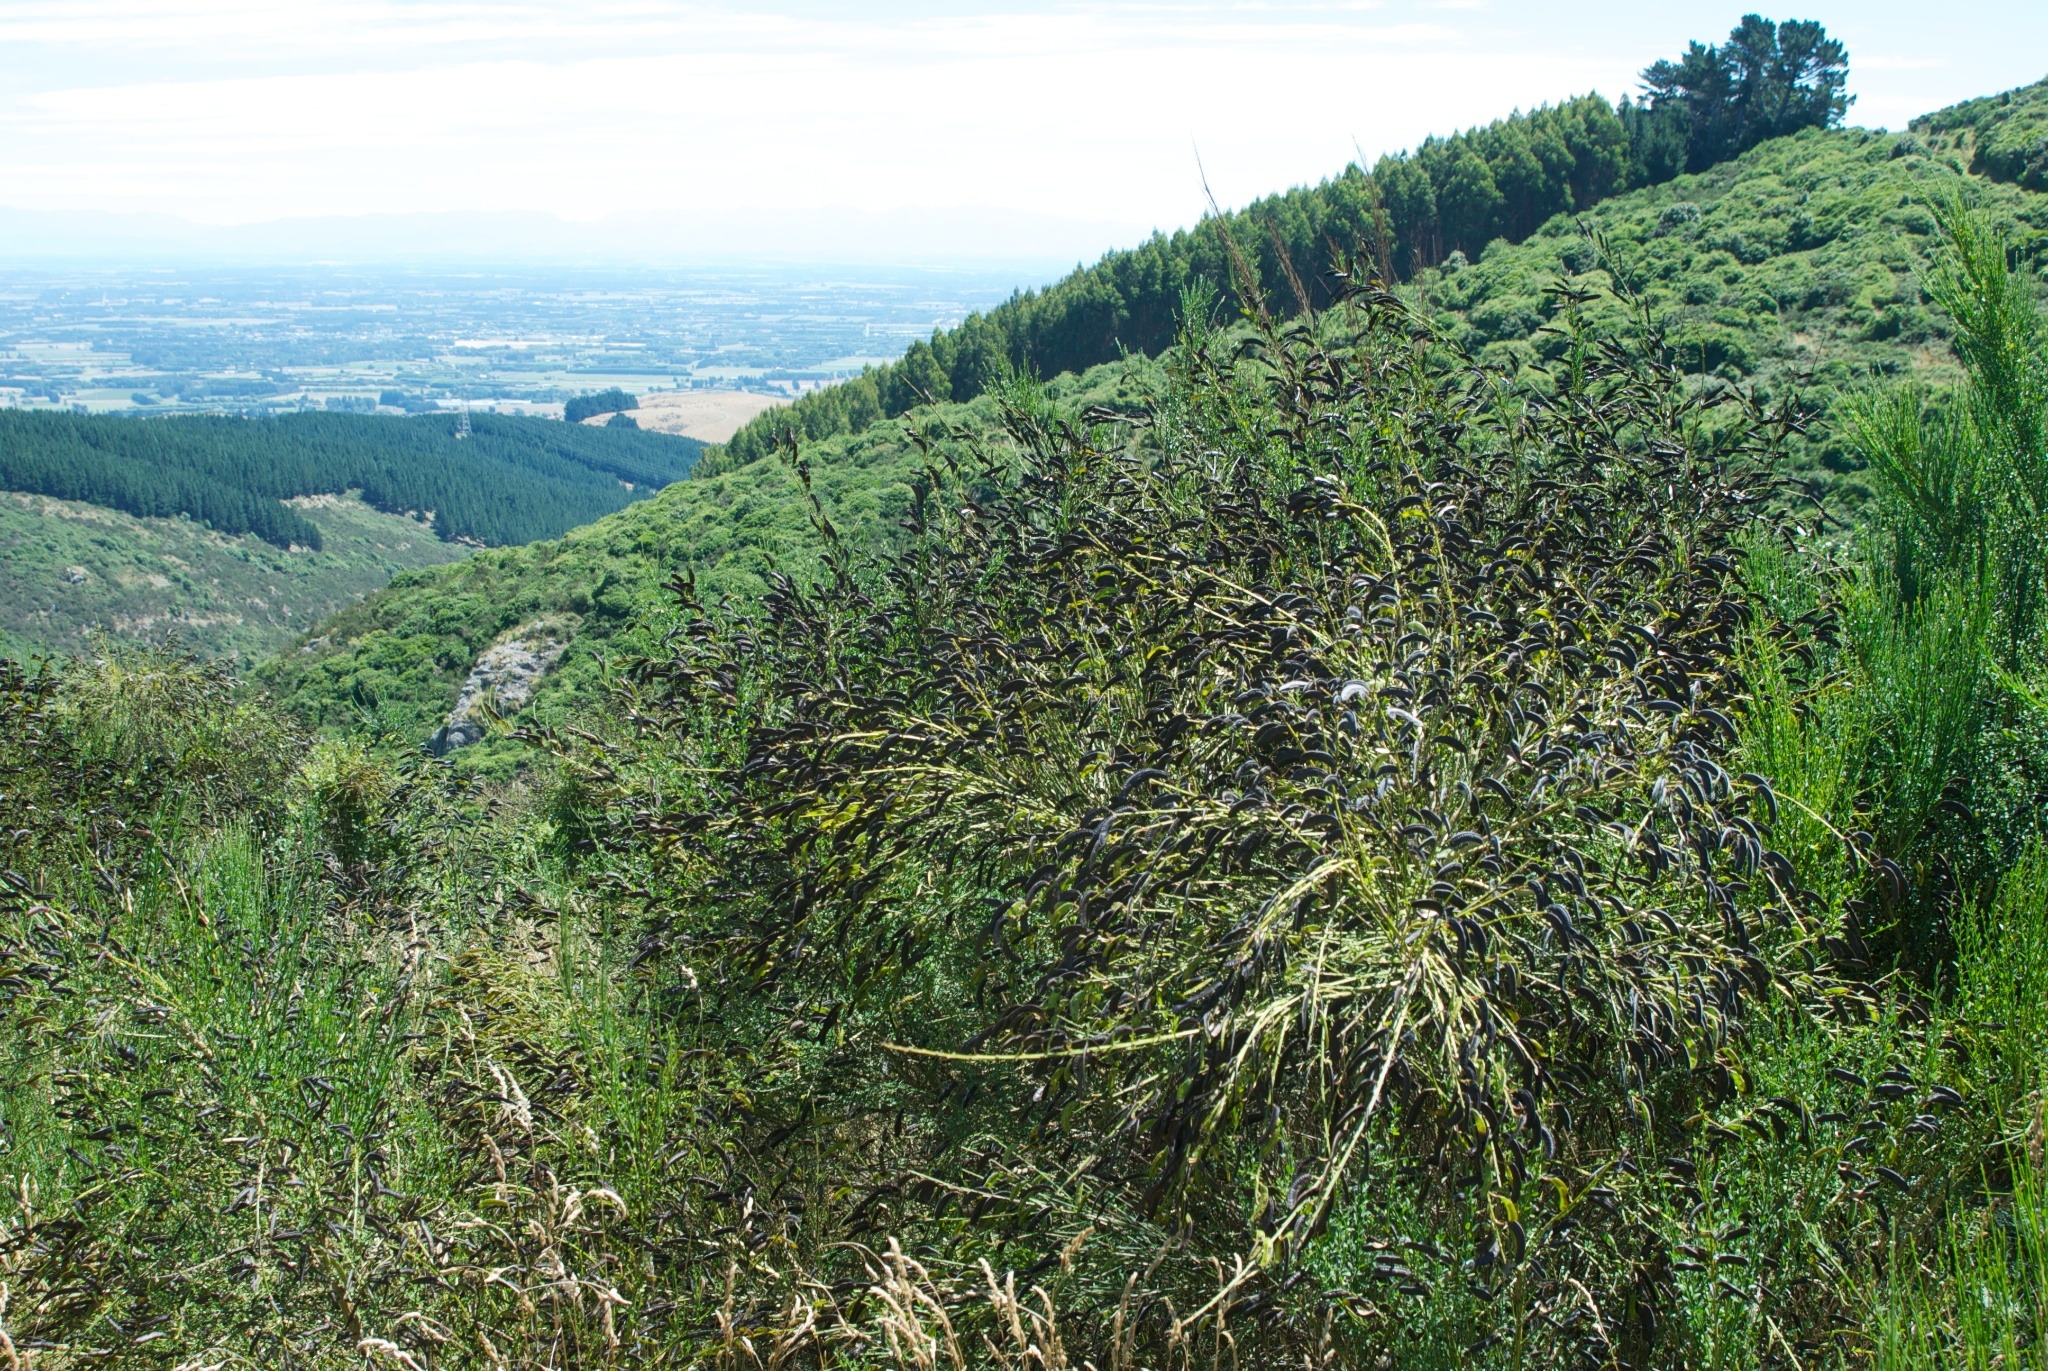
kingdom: Plantae
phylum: Tracheophyta
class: Magnoliopsida
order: Fabales
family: Fabaceae
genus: Cytisus
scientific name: Cytisus scoparius
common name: Scotch broom
